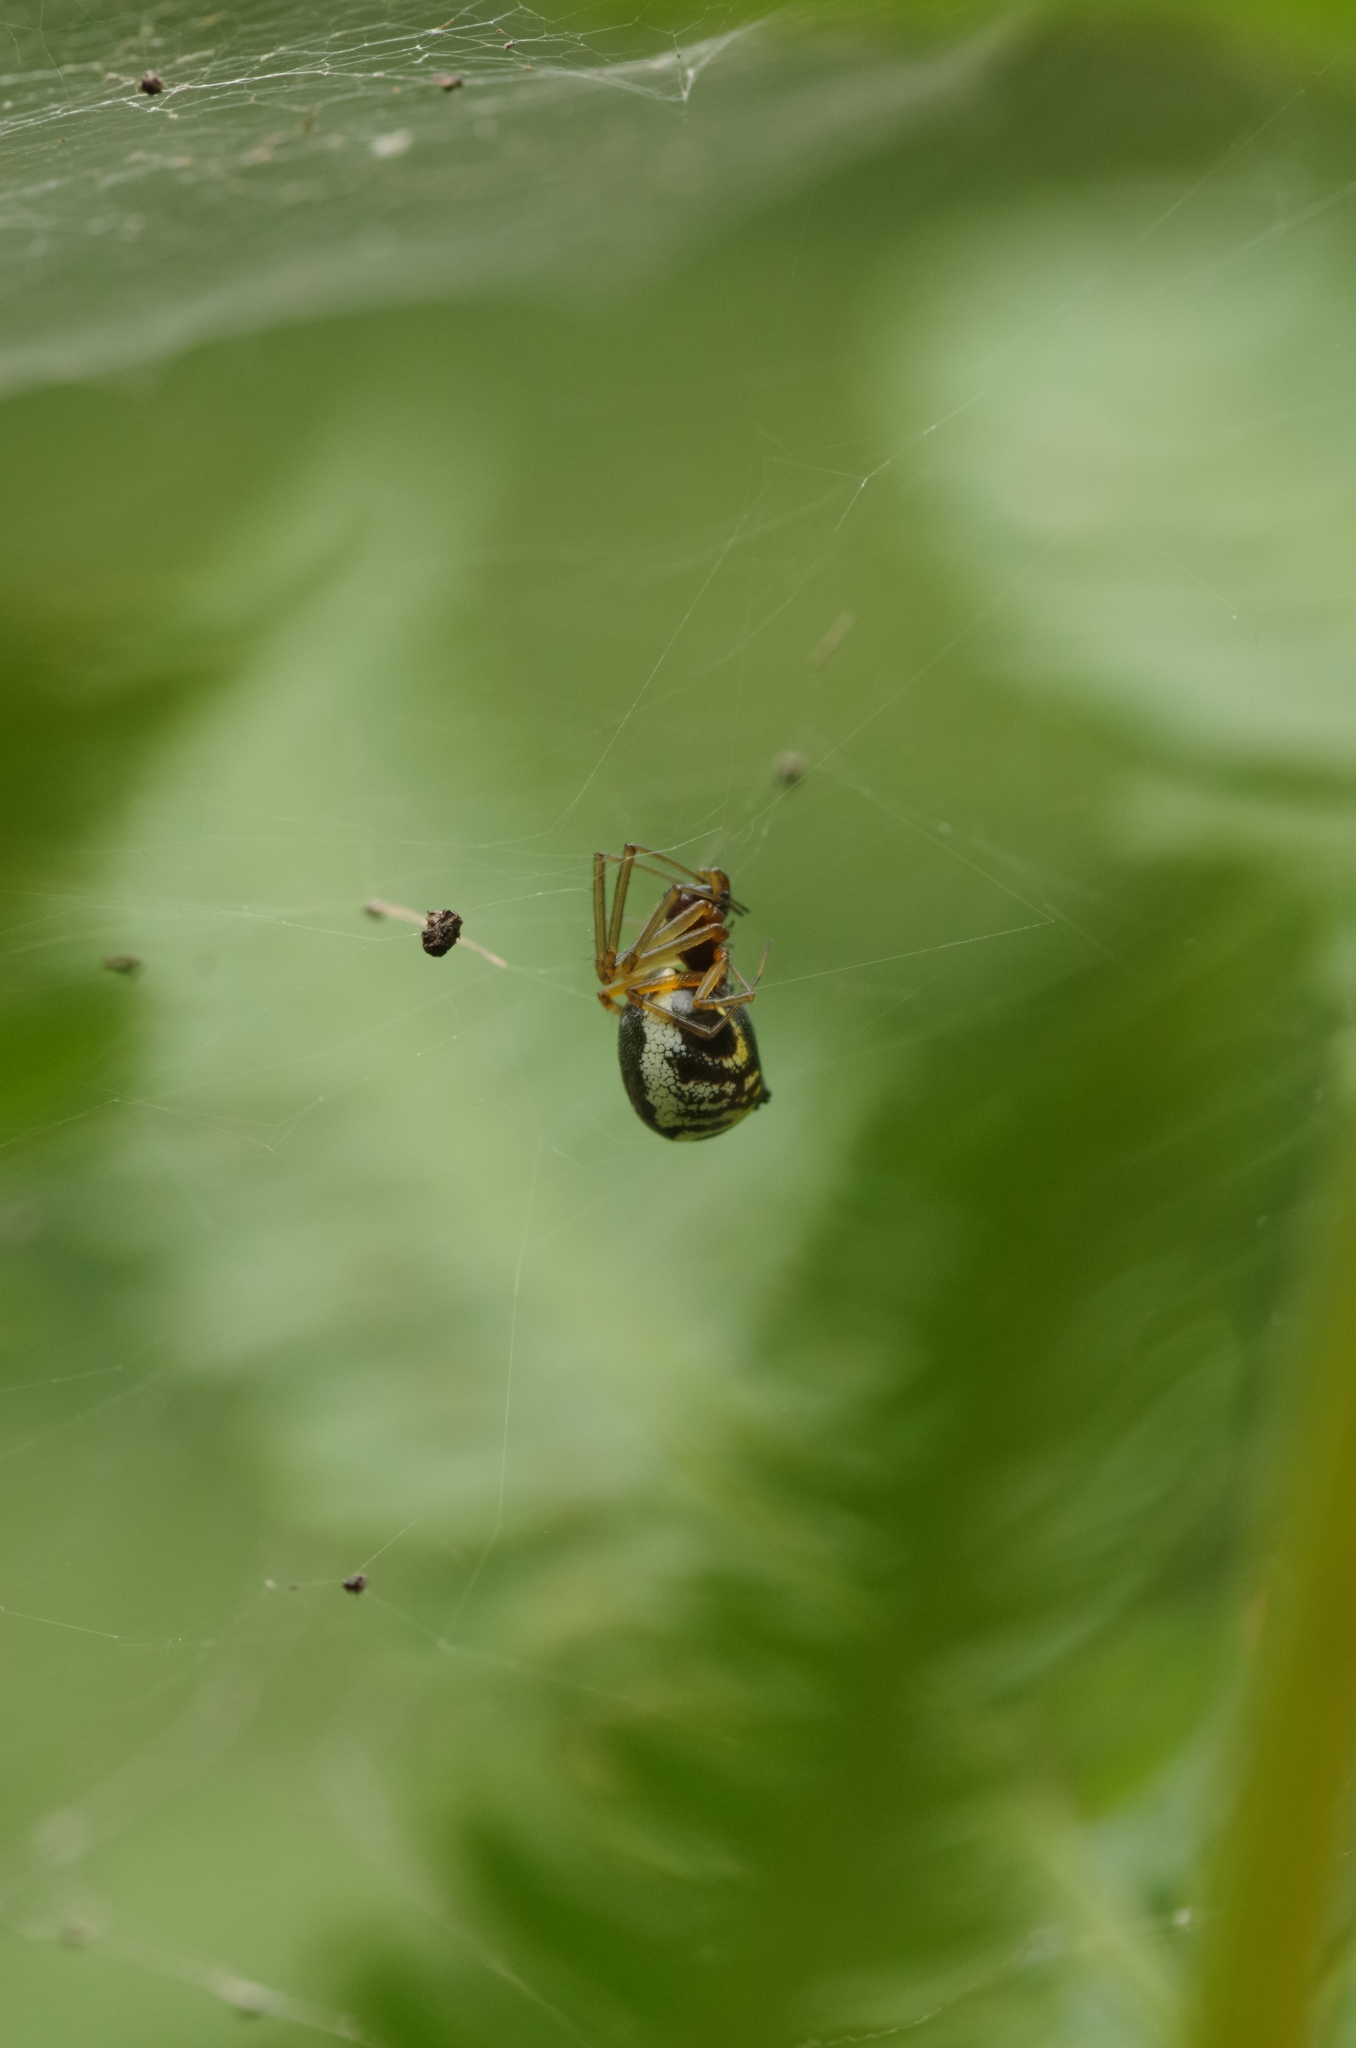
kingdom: Animalia
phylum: Arthropoda
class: Arachnida
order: Araneae
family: Linyphiidae
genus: Frontinellina
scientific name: Frontinellina frutetorum
